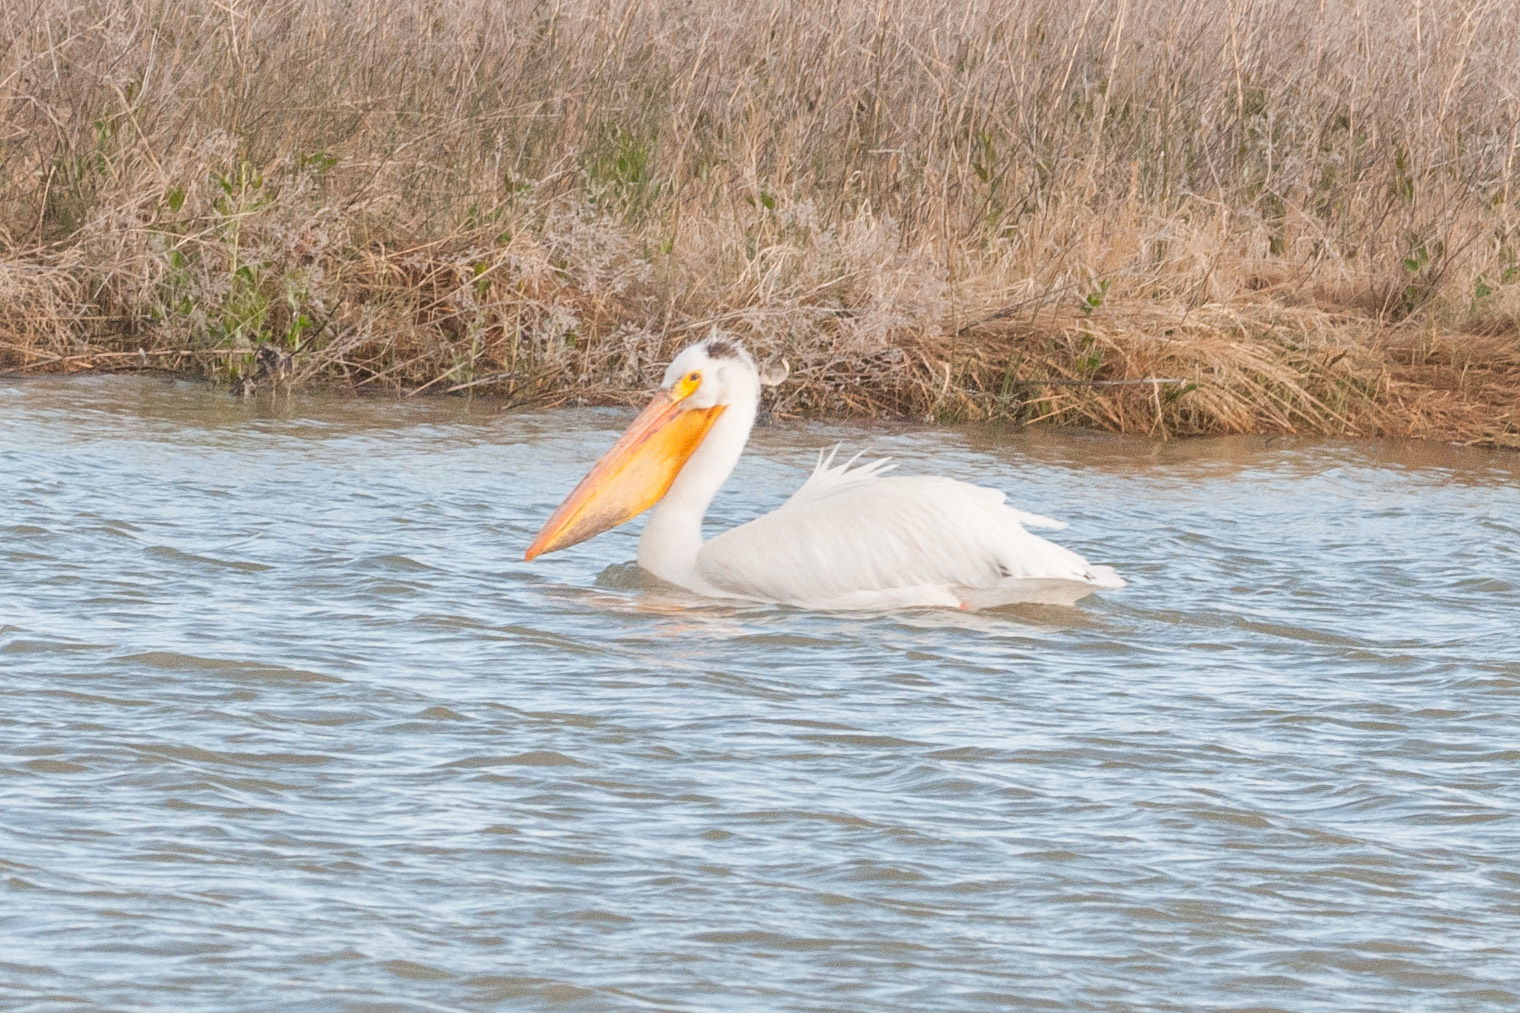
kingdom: Animalia
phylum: Chordata
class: Aves
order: Pelecaniformes
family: Pelecanidae
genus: Pelecanus
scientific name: Pelecanus erythrorhynchos
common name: American white pelican
